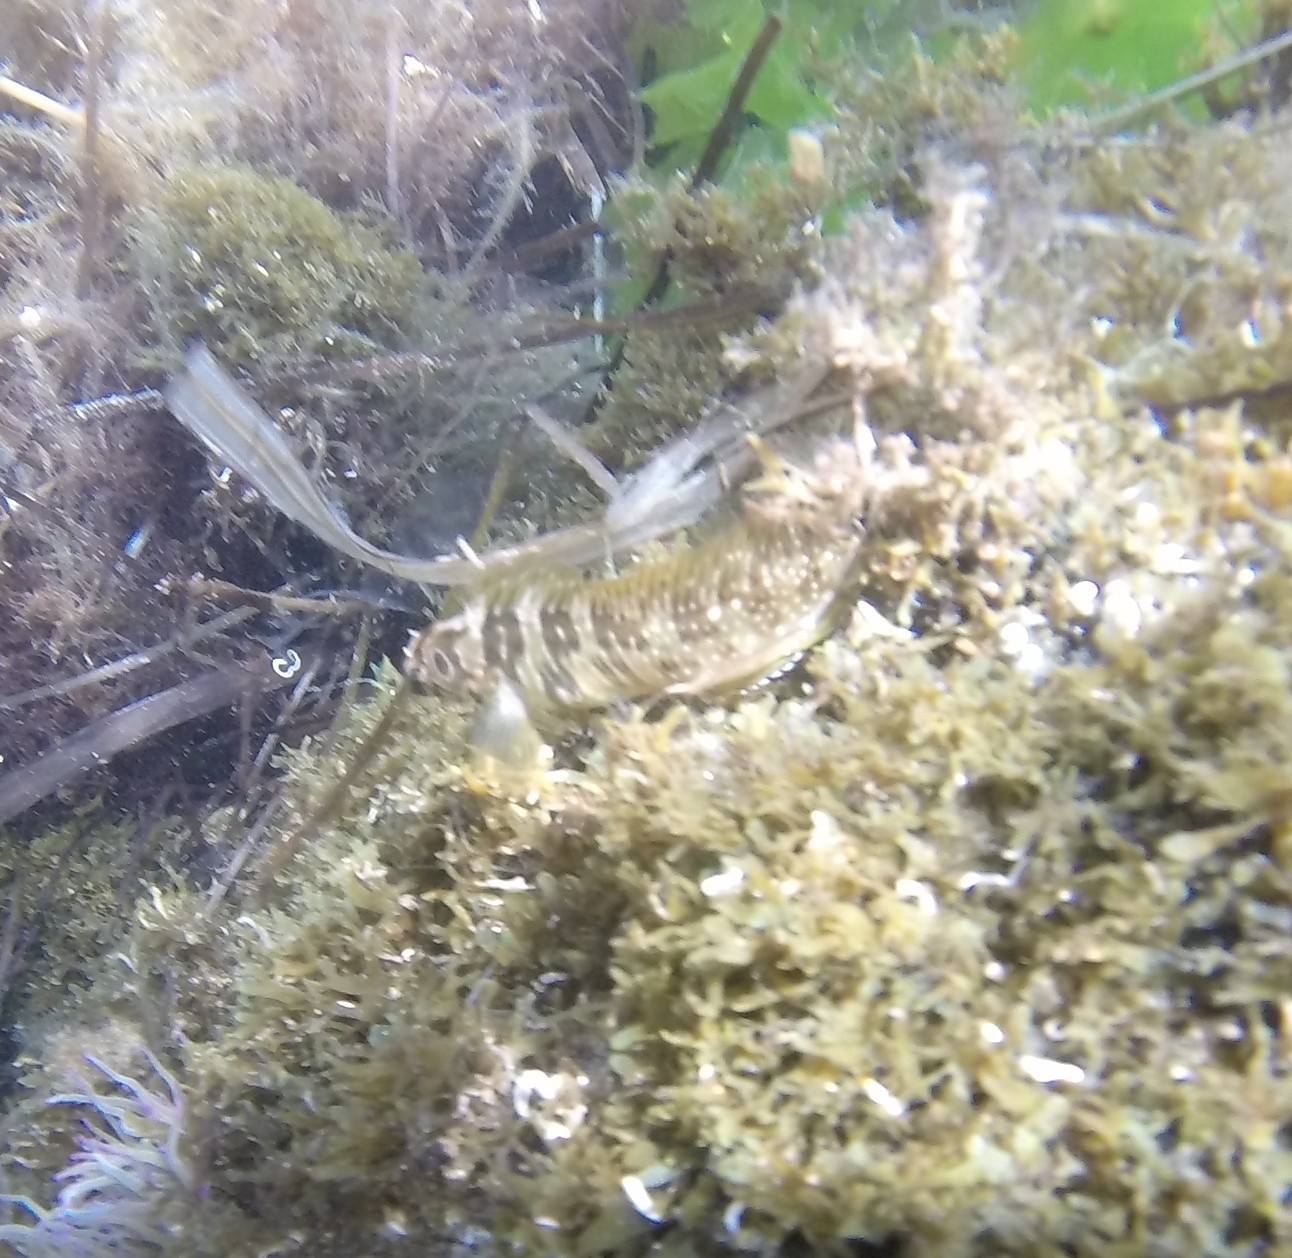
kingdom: Animalia
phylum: Chordata
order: Perciformes
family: Blenniidae
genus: Salaria
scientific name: Salaria pavo
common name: Peacock blenny
